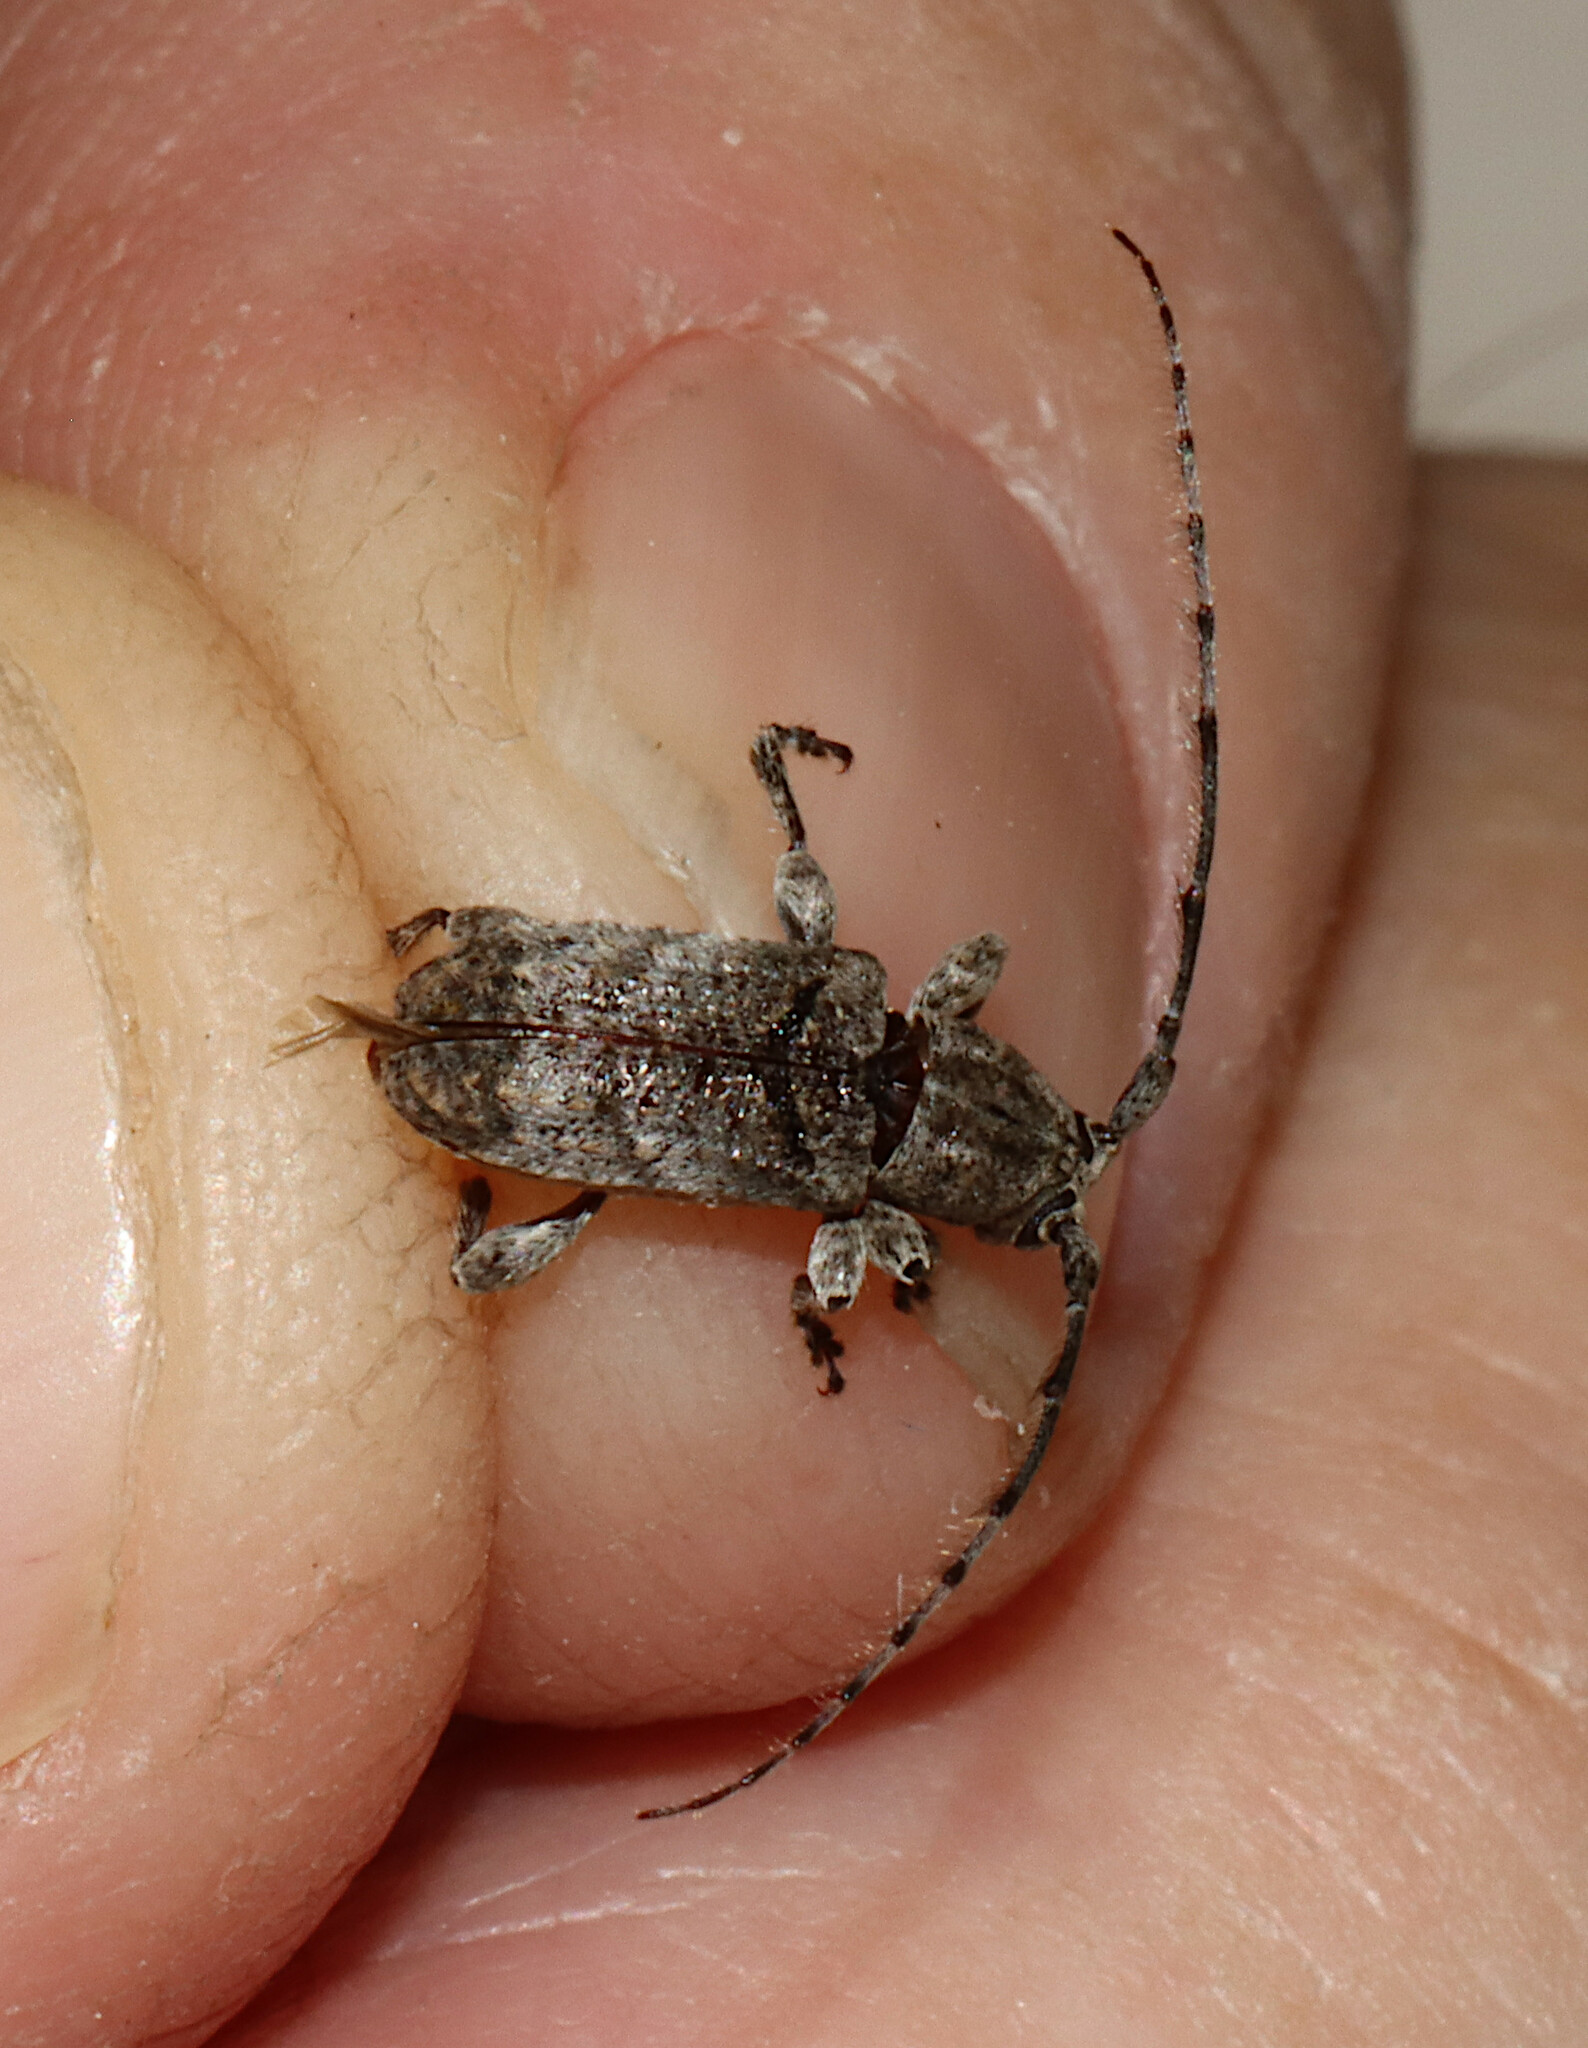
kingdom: Animalia
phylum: Arthropoda
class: Insecta
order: Coleoptera
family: Cerambycidae
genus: Ecyrus
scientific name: Ecyrus dasycerus
